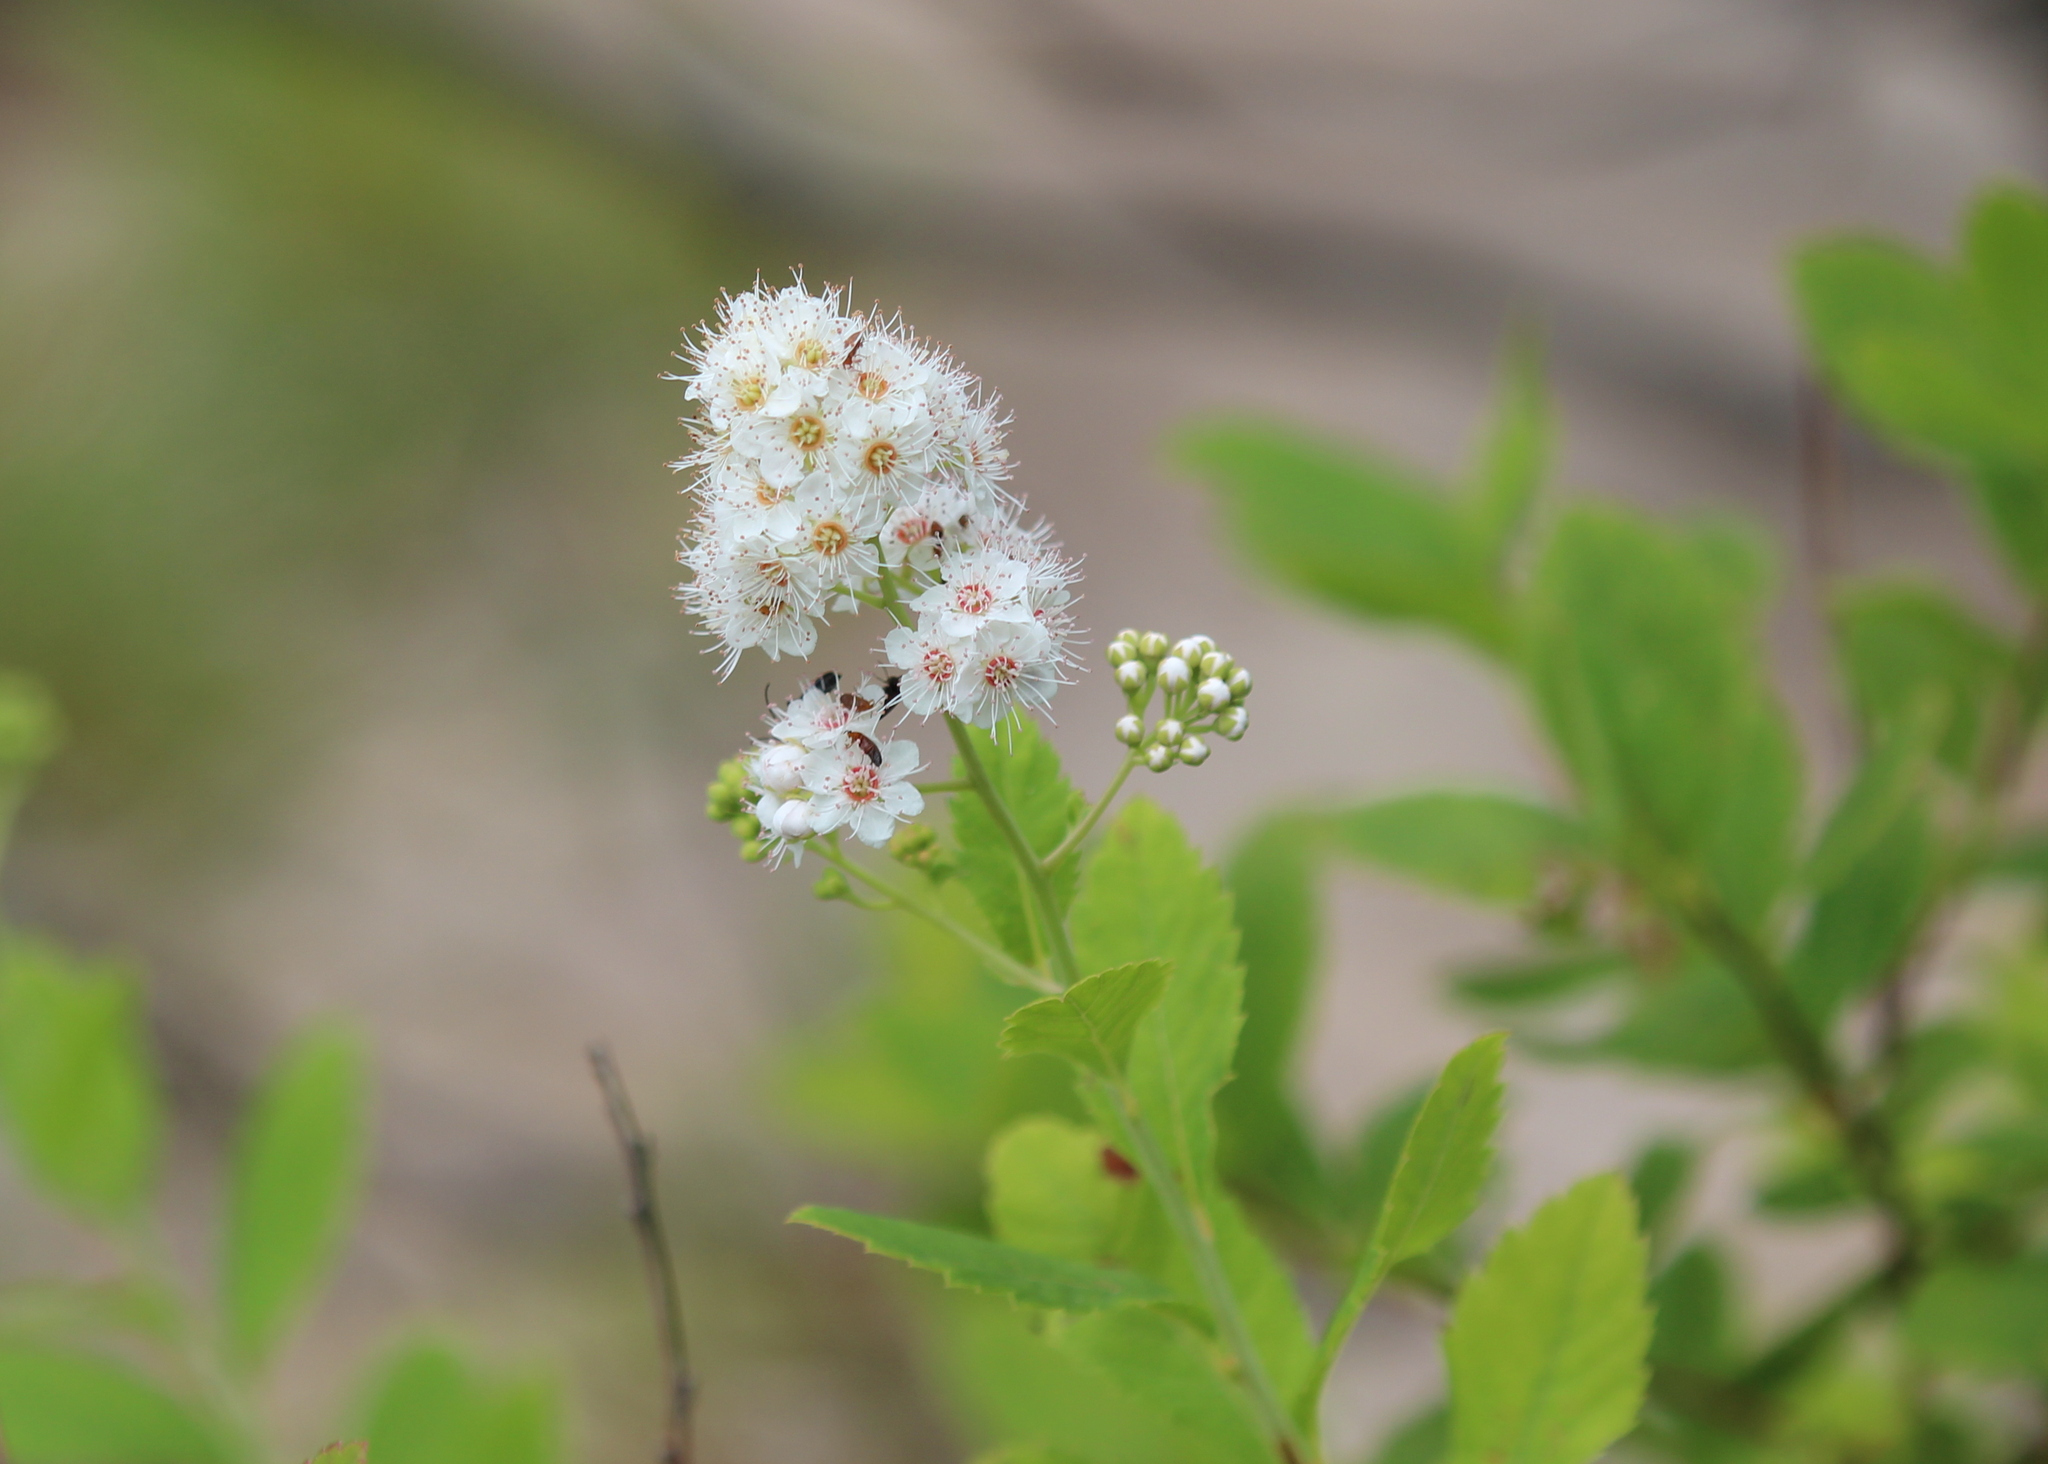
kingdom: Plantae
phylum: Tracheophyta
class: Magnoliopsida
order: Rosales
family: Rosaceae
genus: Spiraea
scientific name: Spiraea alba
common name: Pale bridewort
